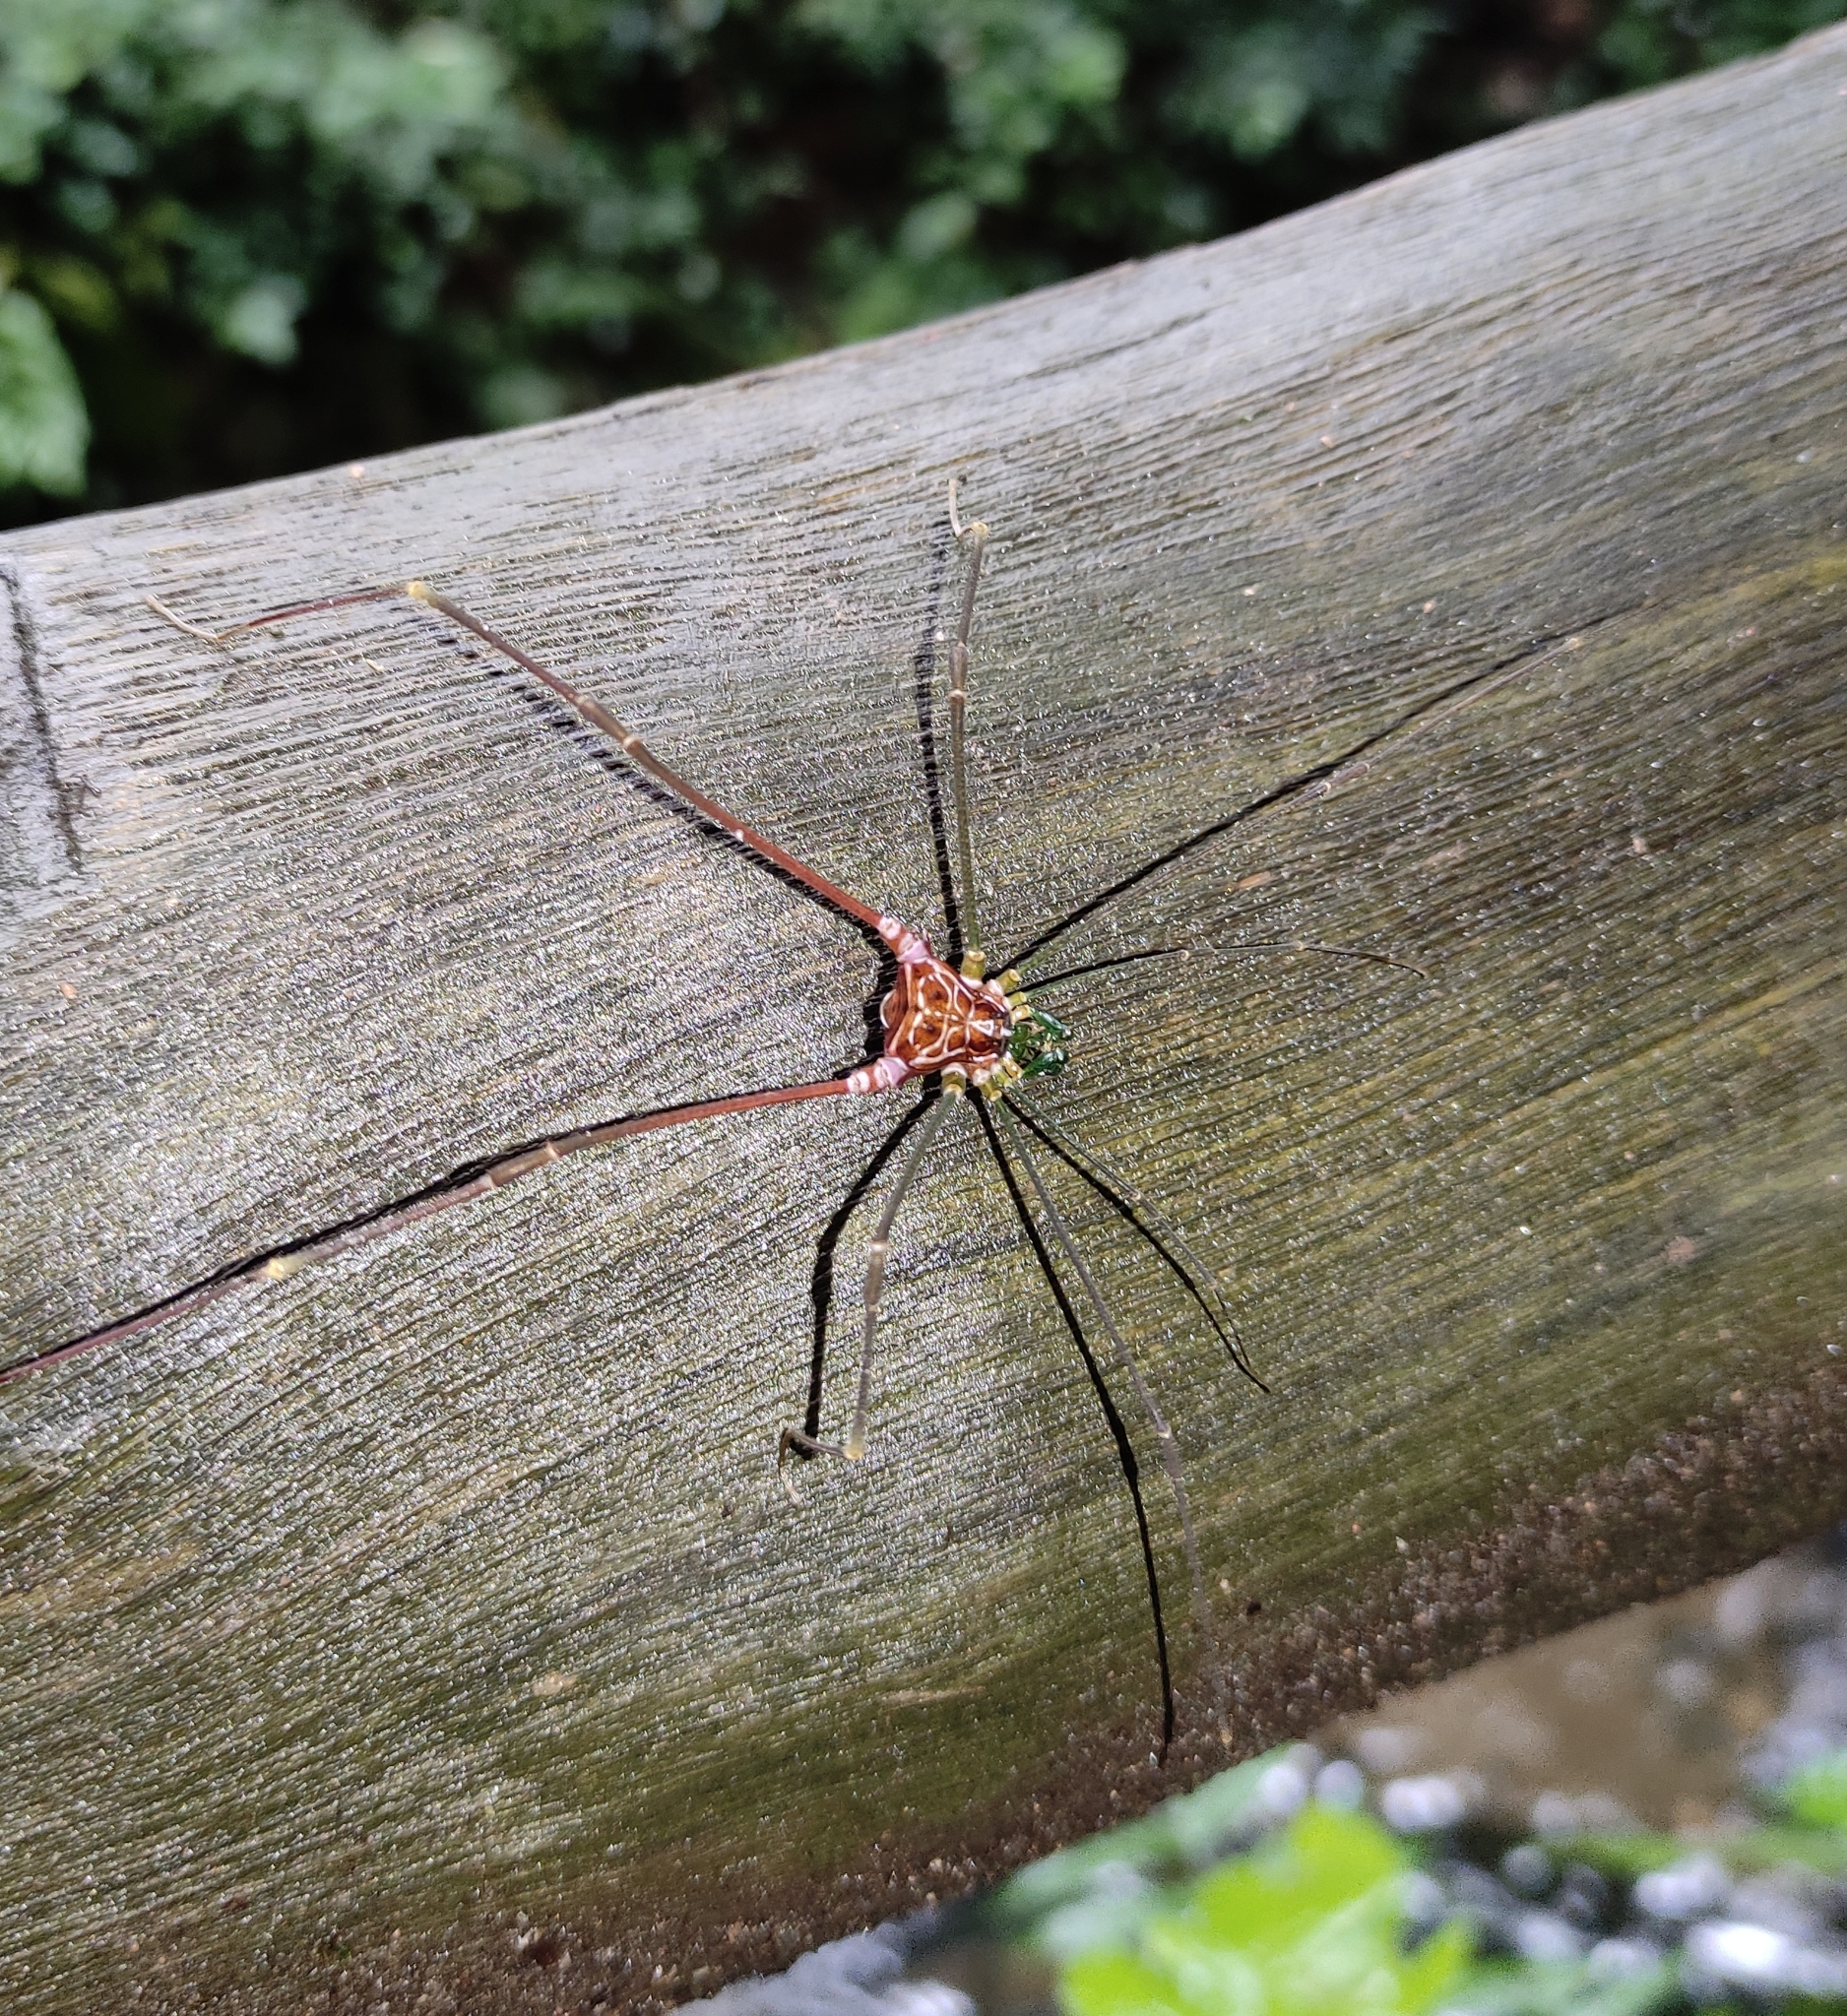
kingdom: Animalia
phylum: Arthropoda
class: Arachnida
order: Opiliones
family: Gonyleptidae
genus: Heteromitobates
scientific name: Heteromitobates inscriptus
